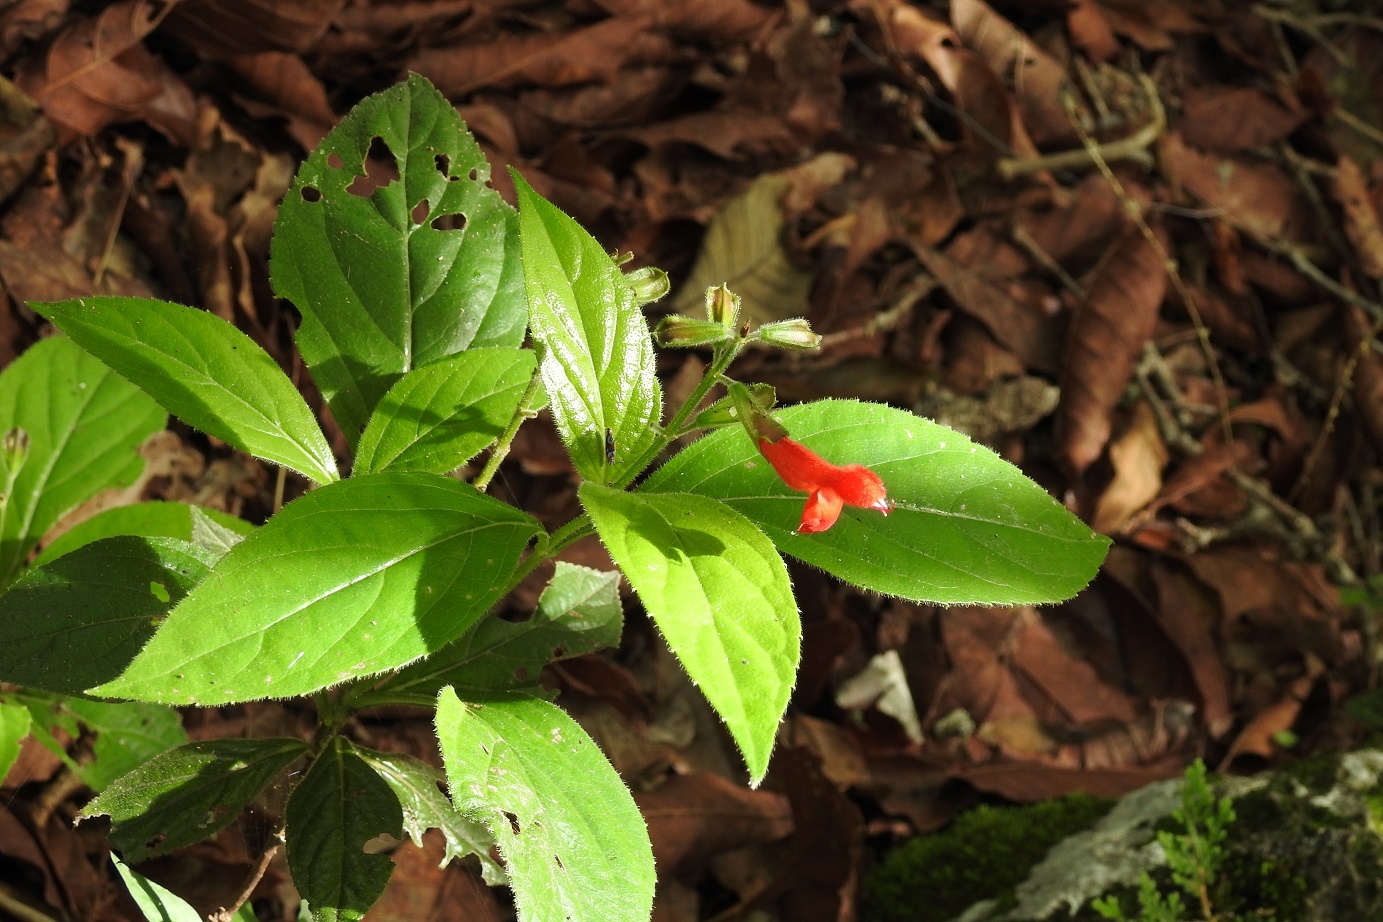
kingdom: Plantae
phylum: Tracheophyta
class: Magnoliopsida
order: Lamiales
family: Lamiaceae
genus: Salvia
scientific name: Salvia miniata
